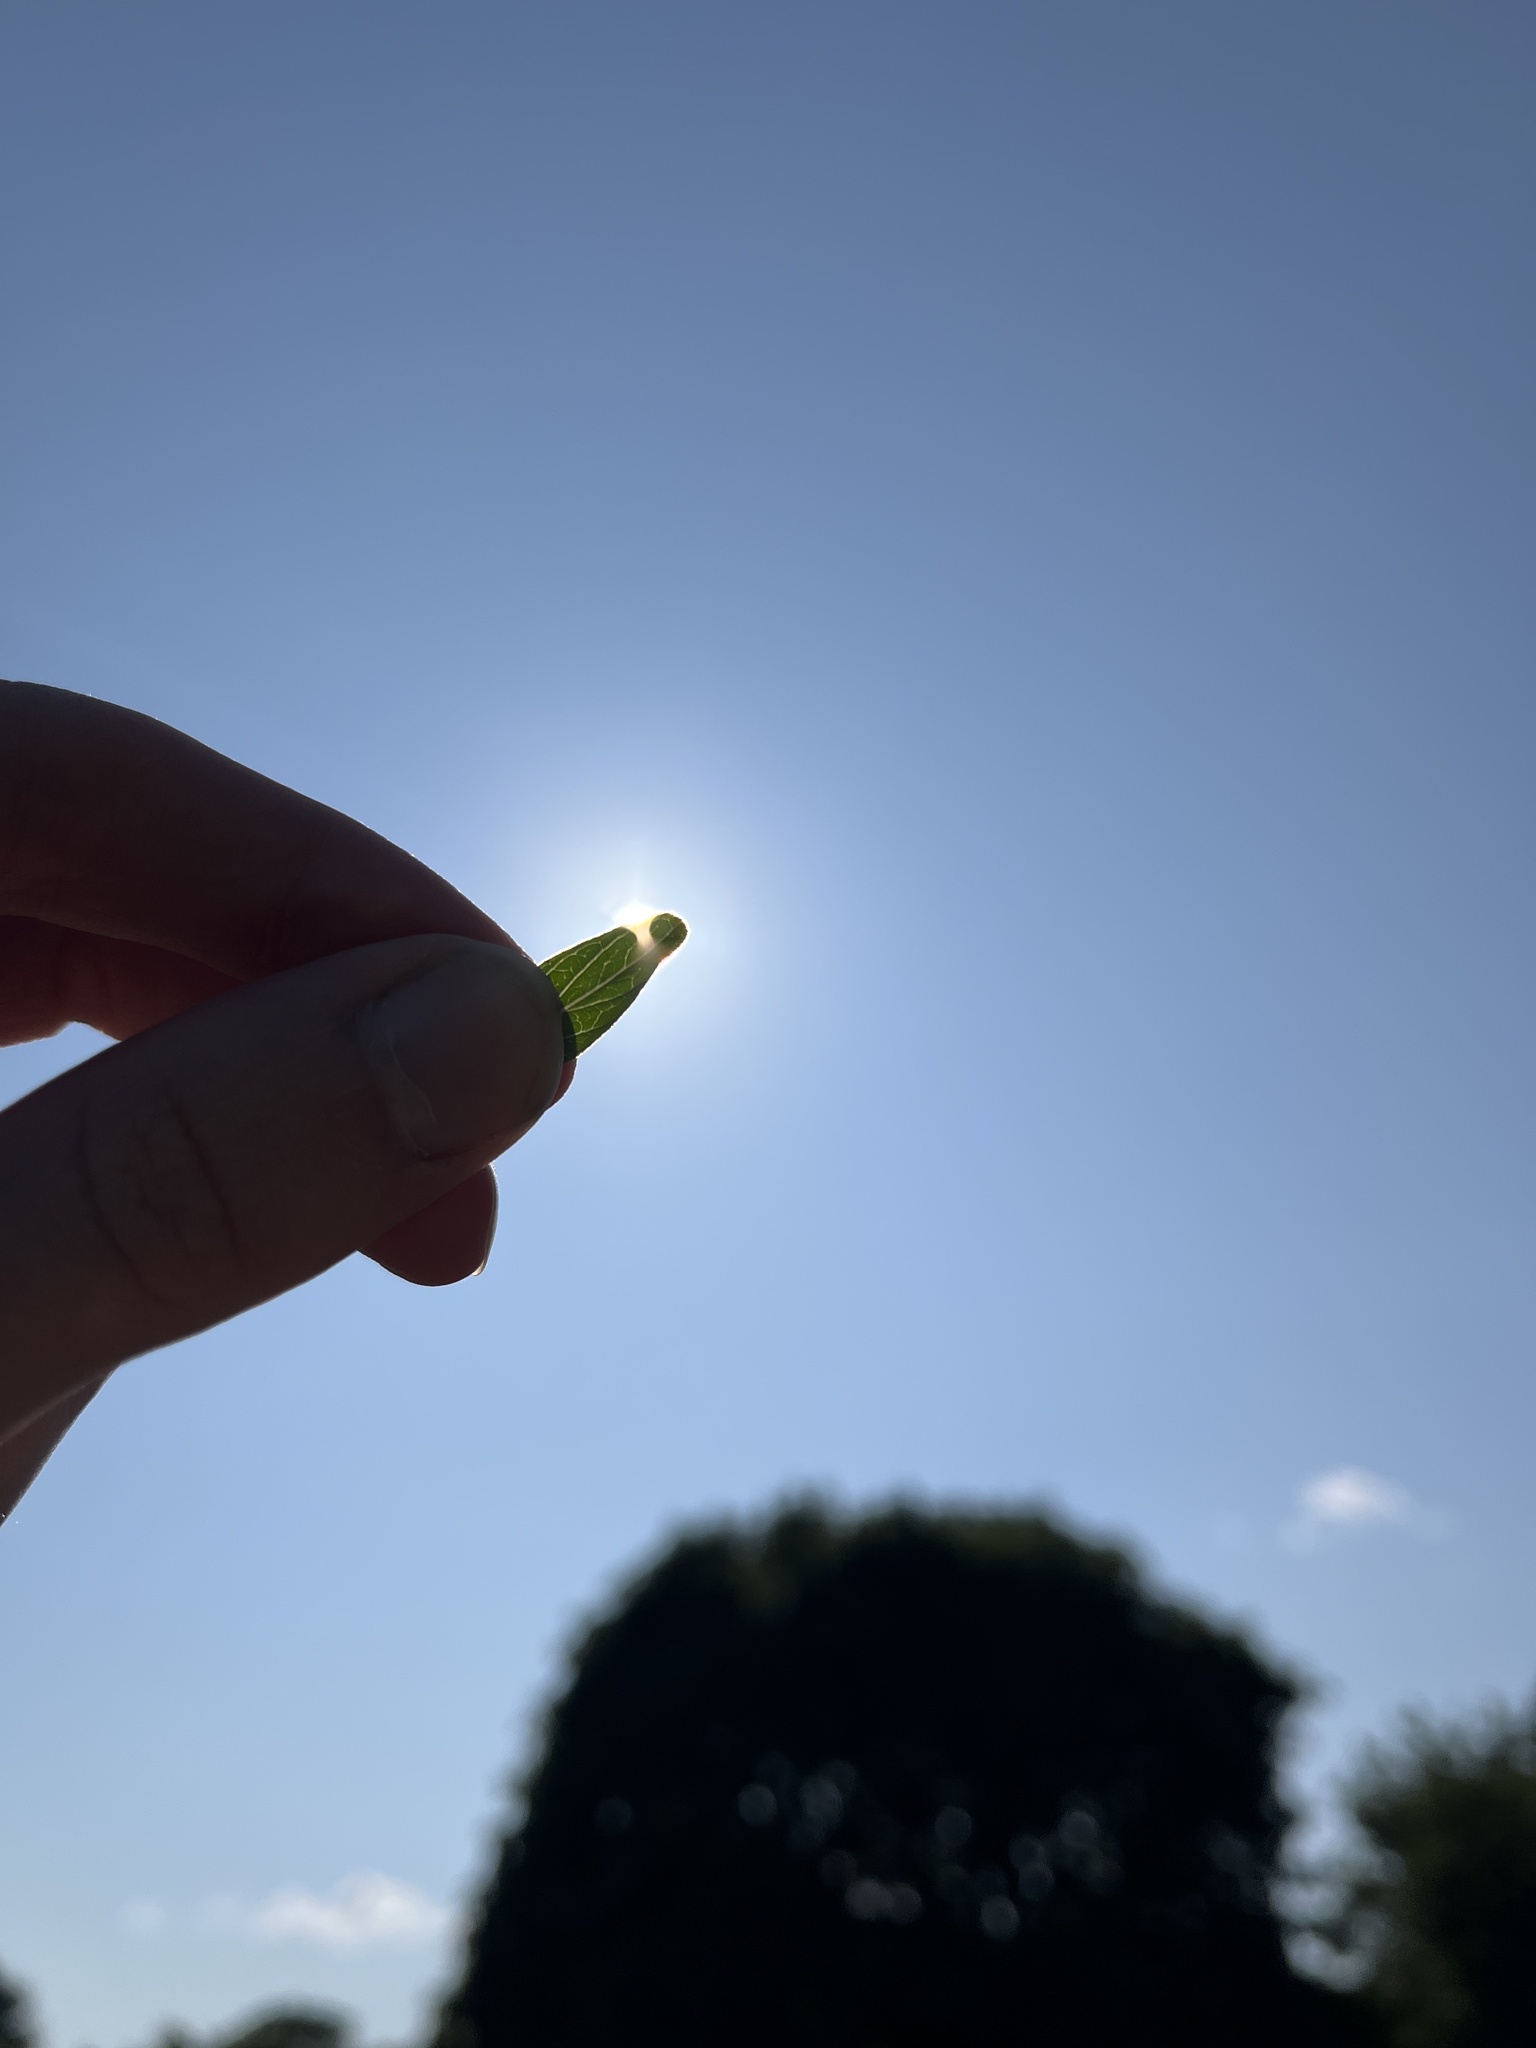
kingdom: Plantae
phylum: Tracheophyta
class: Magnoliopsida
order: Malpighiales
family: Hypericaceae
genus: Hypericum
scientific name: Hypericum maculatum
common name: Imperforate st. john's-wort
